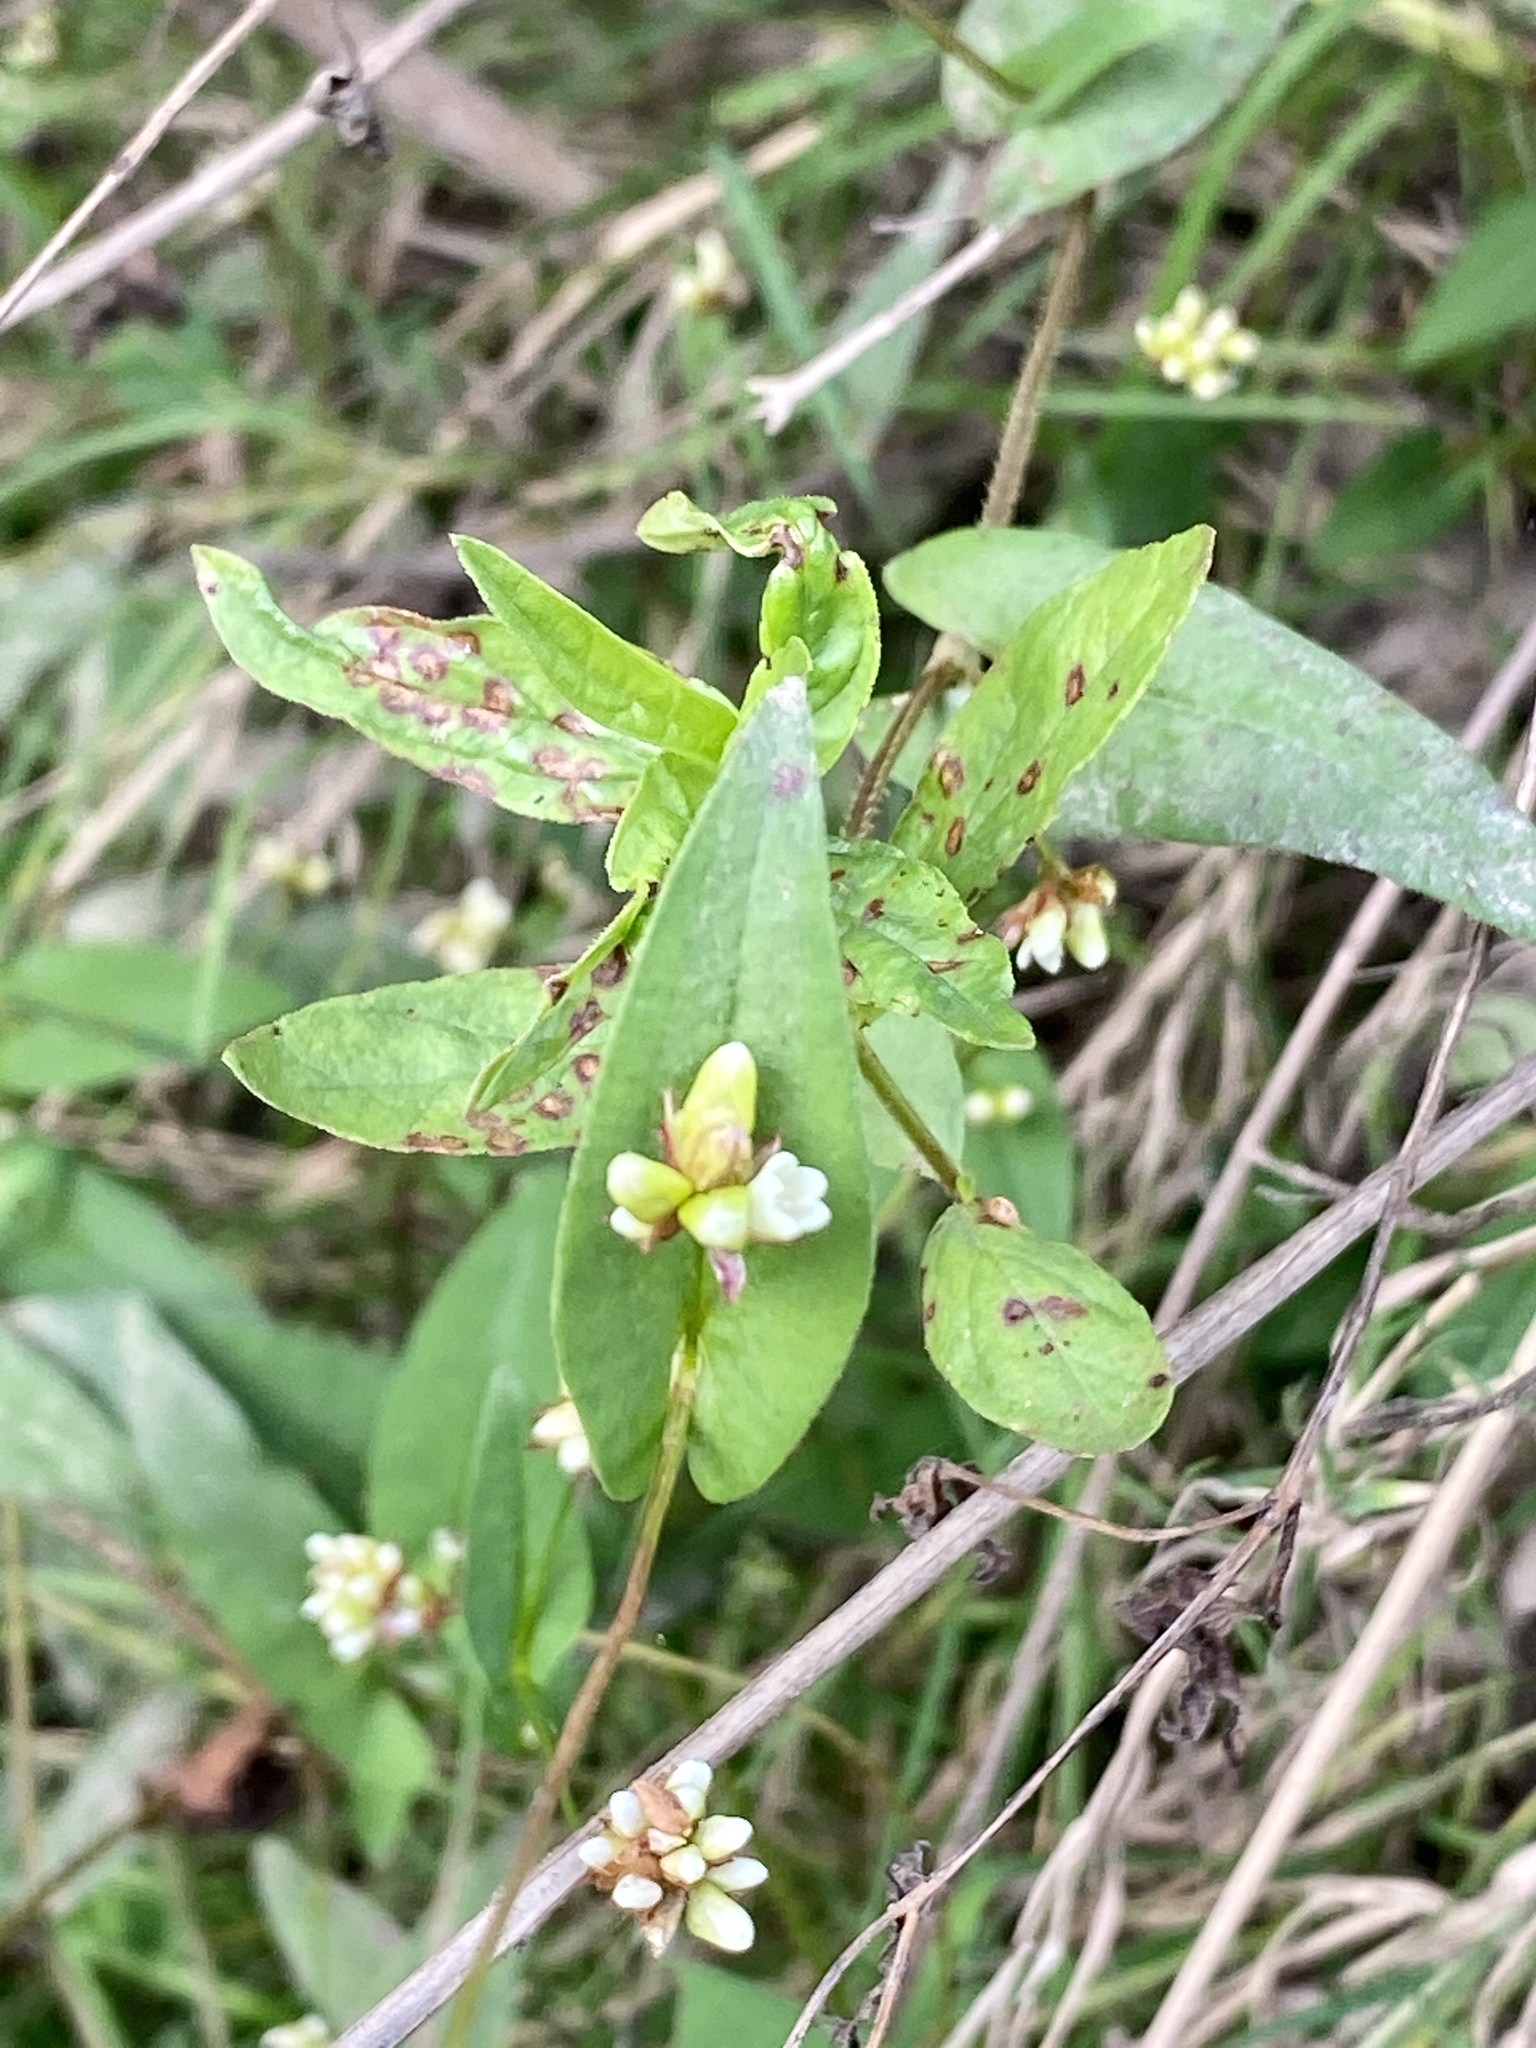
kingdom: Plantae
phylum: Tracheophyta
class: Magnoliopsida
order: Caryophyllales
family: Polygonaceae
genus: Persicaria
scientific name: Persicaria sagittata
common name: American tearthumb
